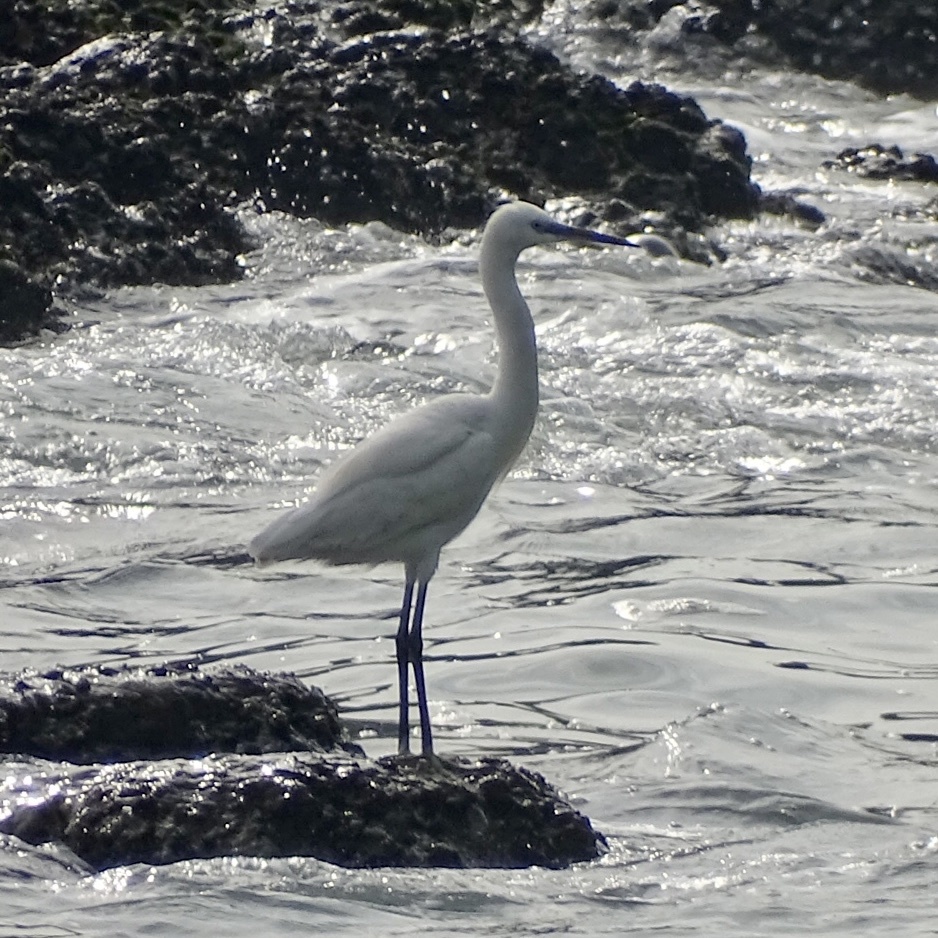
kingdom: Animalia
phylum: Chordata
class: Aves
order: Pelecaniformes
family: Ardeidae
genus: Egretta
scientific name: Egretta garzetta
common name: Little egret
